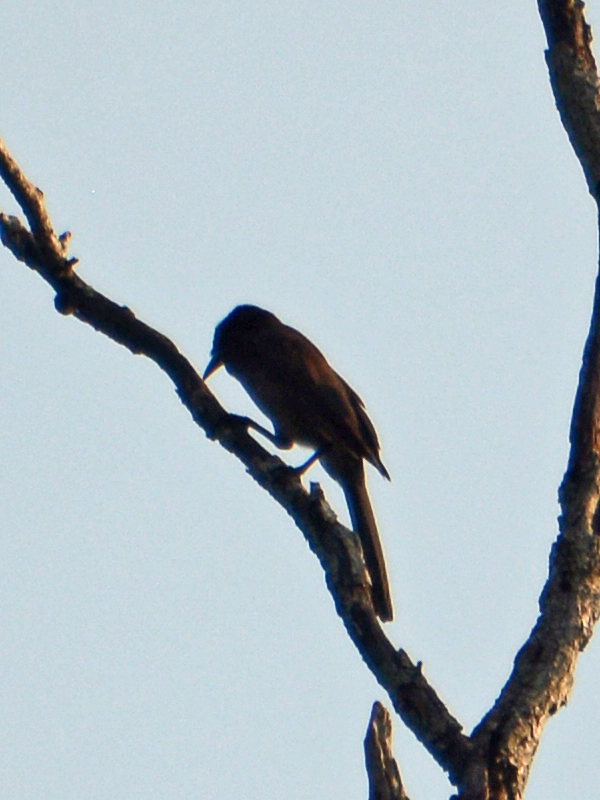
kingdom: Animalia
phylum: Chordata
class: Aves
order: Passeriformes
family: Icteridae
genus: Quiscalus
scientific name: Quiscalus mexicanus
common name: Great-tailed grackle
